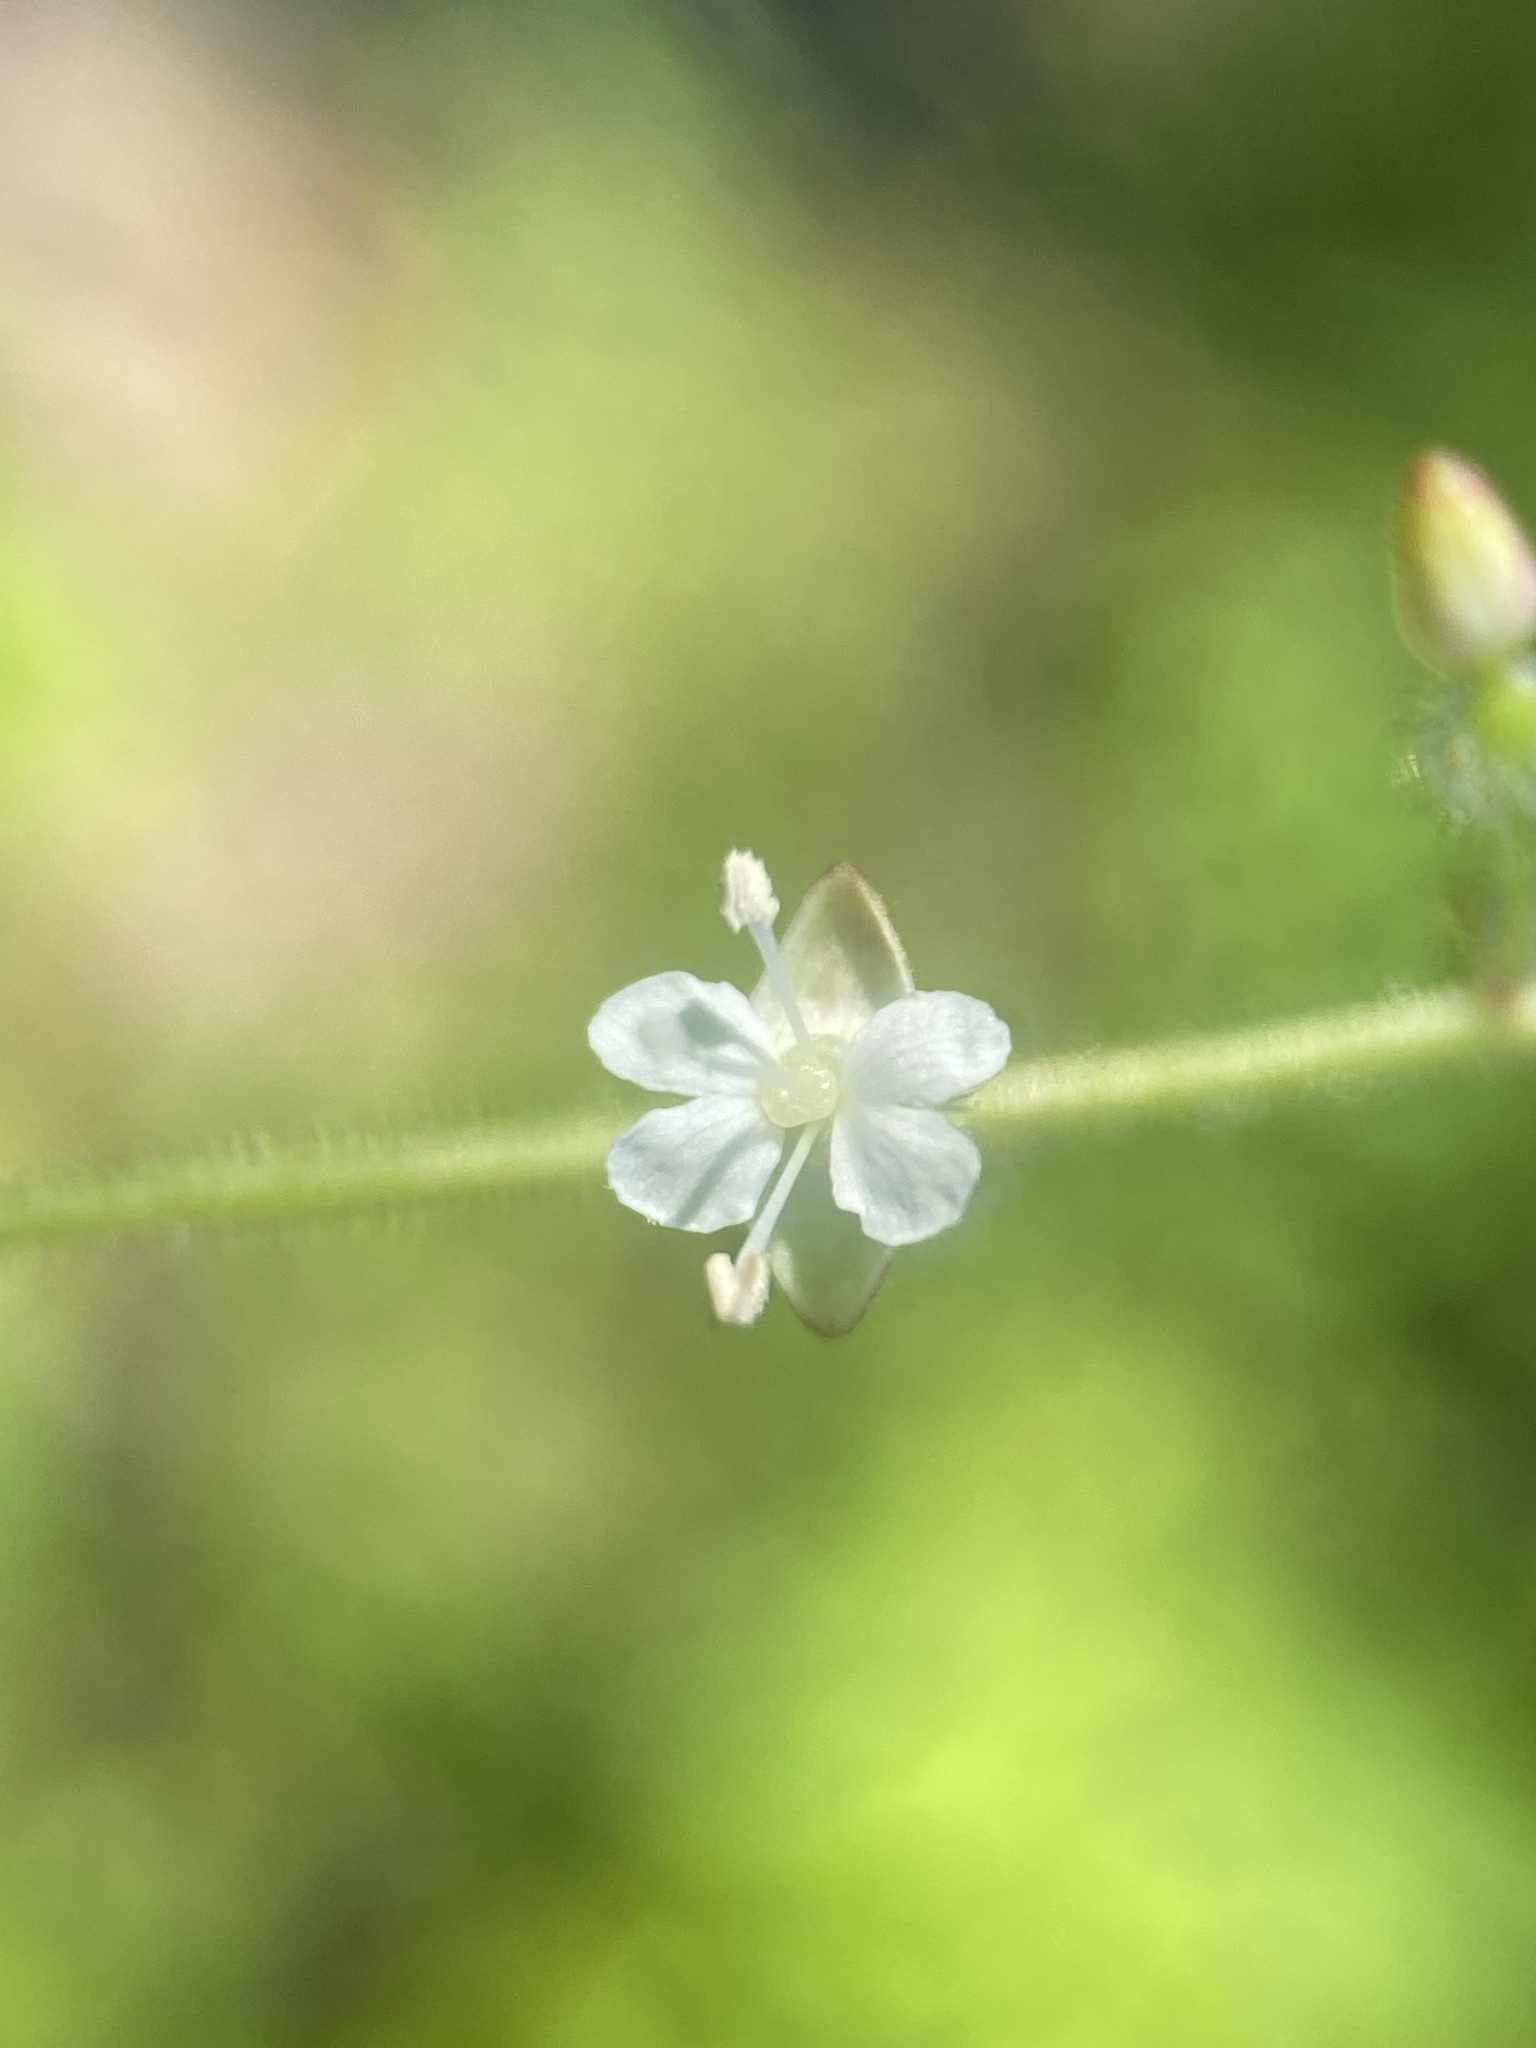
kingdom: Plantae
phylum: Tracheophyta
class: Magnoliopsida
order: Myrtales
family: Onagraceae
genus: Circaea
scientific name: Circaea canadensis
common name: Broad-leaved enchanter's nightshade
